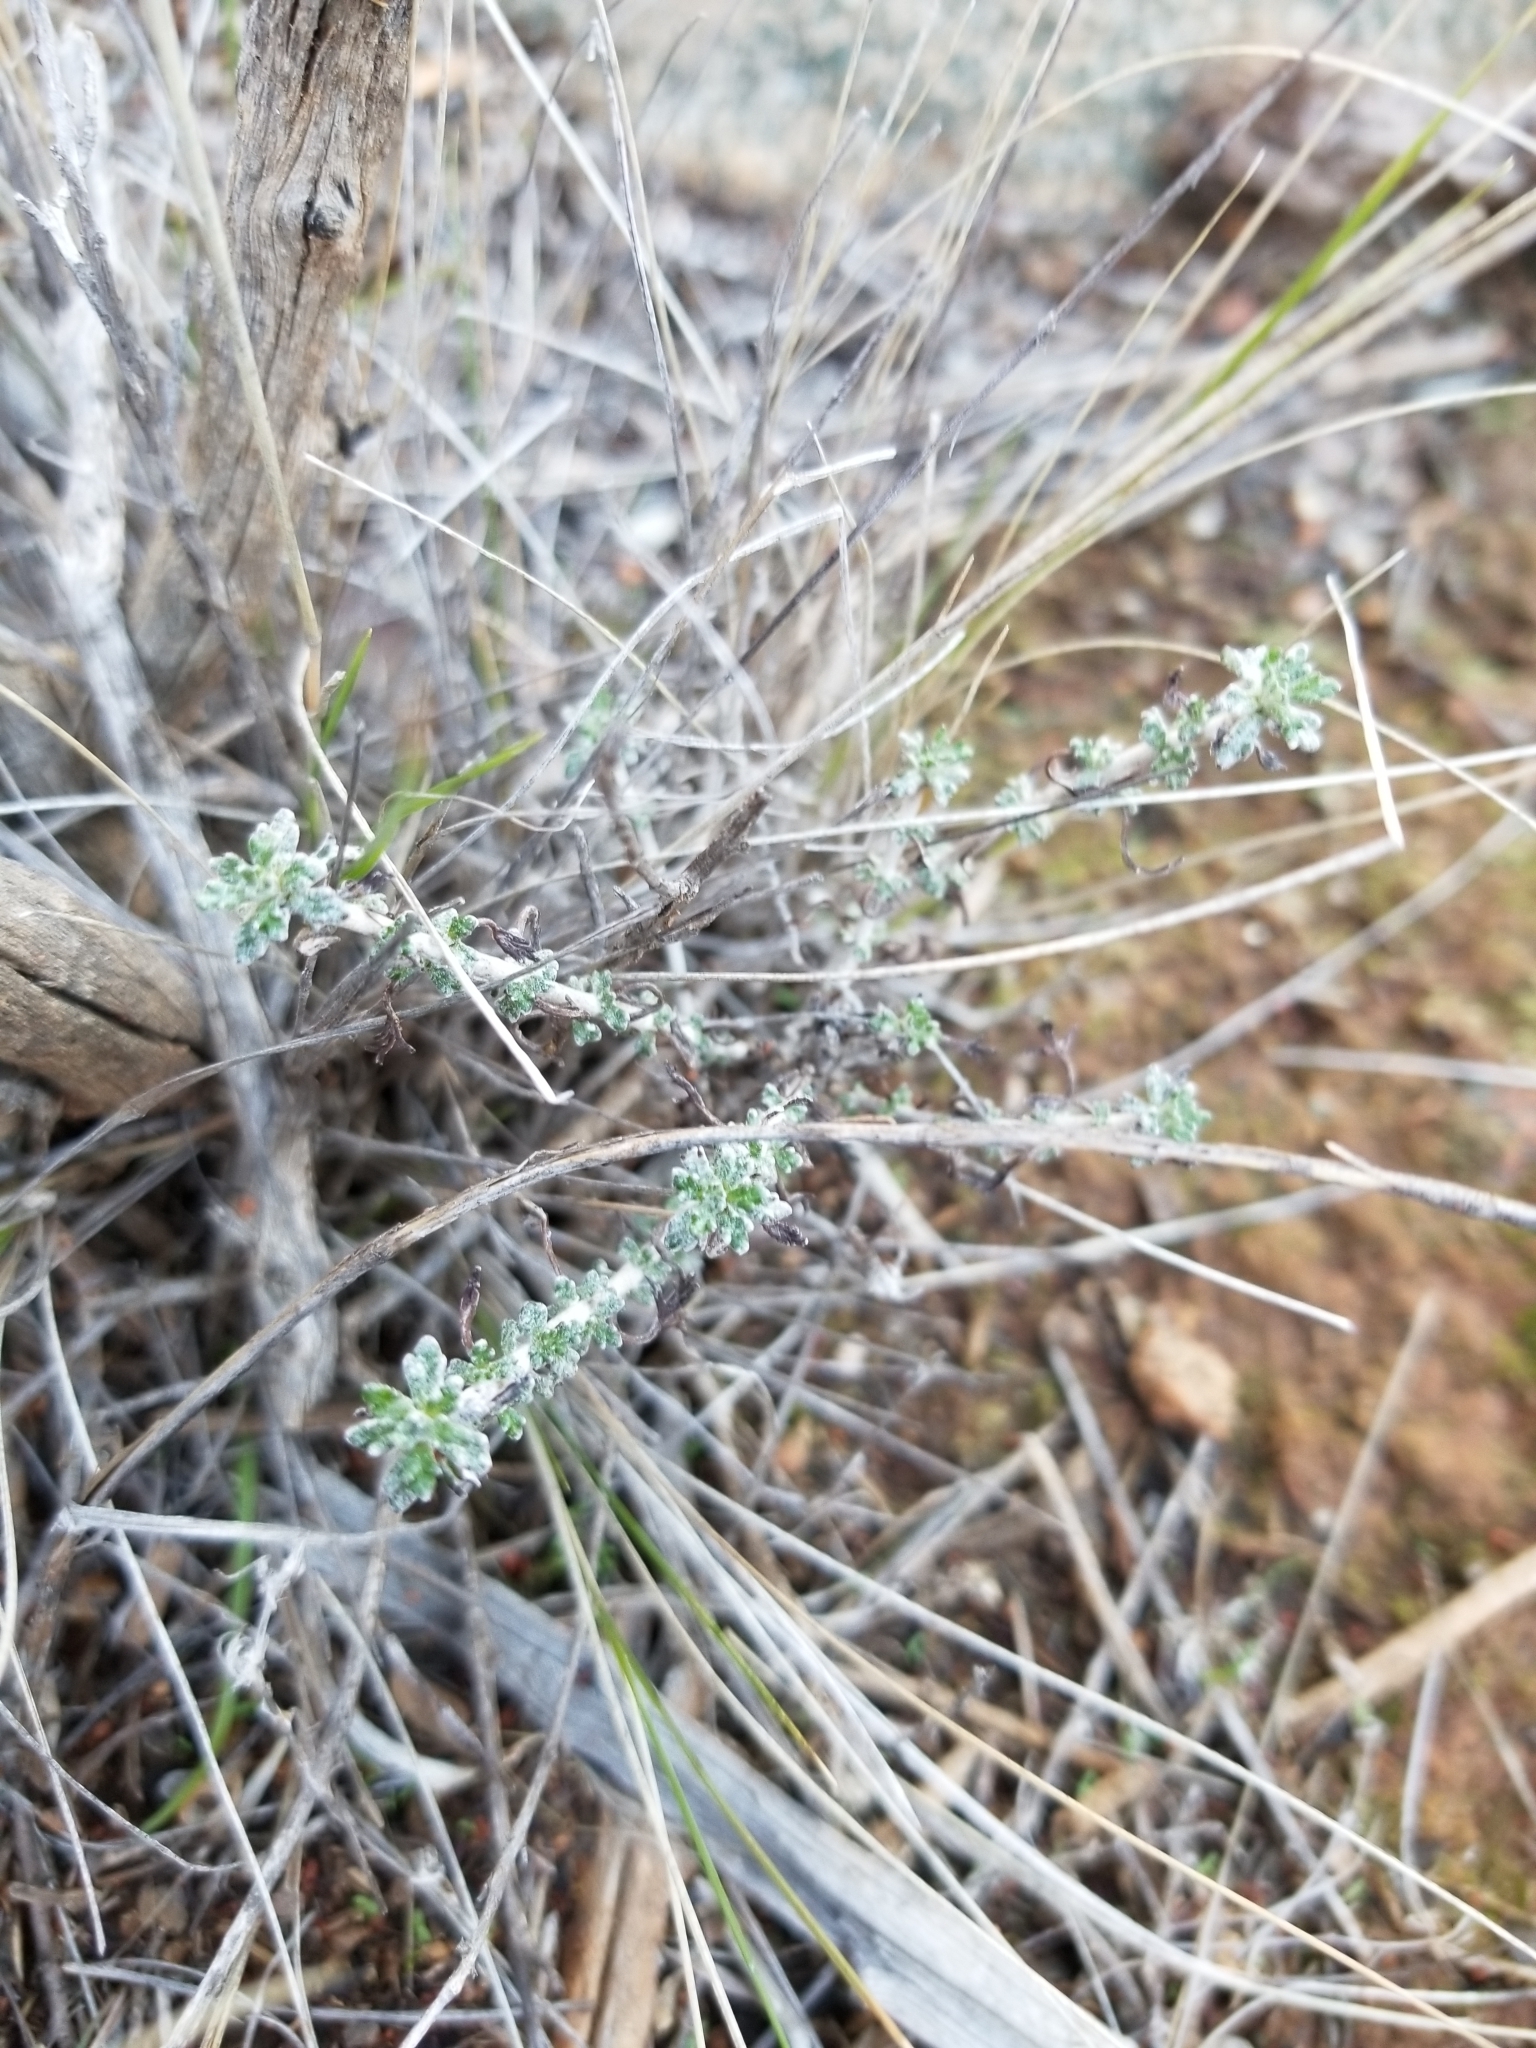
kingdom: Plantae
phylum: Tracheophyta
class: Magnoliopsida
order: Asterales
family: Asteraceae
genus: Eriophyllum
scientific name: Eriophyllum confertiflorum
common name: Golden-yarrow
